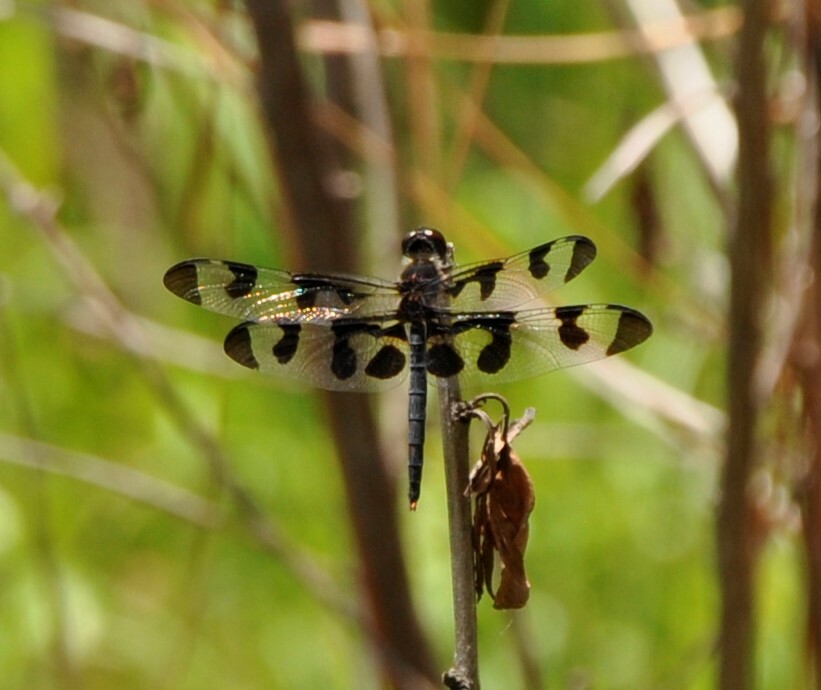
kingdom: Animalia
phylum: Arthropoda
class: Insecta
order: Odonata
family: Libellulidae
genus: Celithemis
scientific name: Celithemis fasciata
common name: Banded pennant
